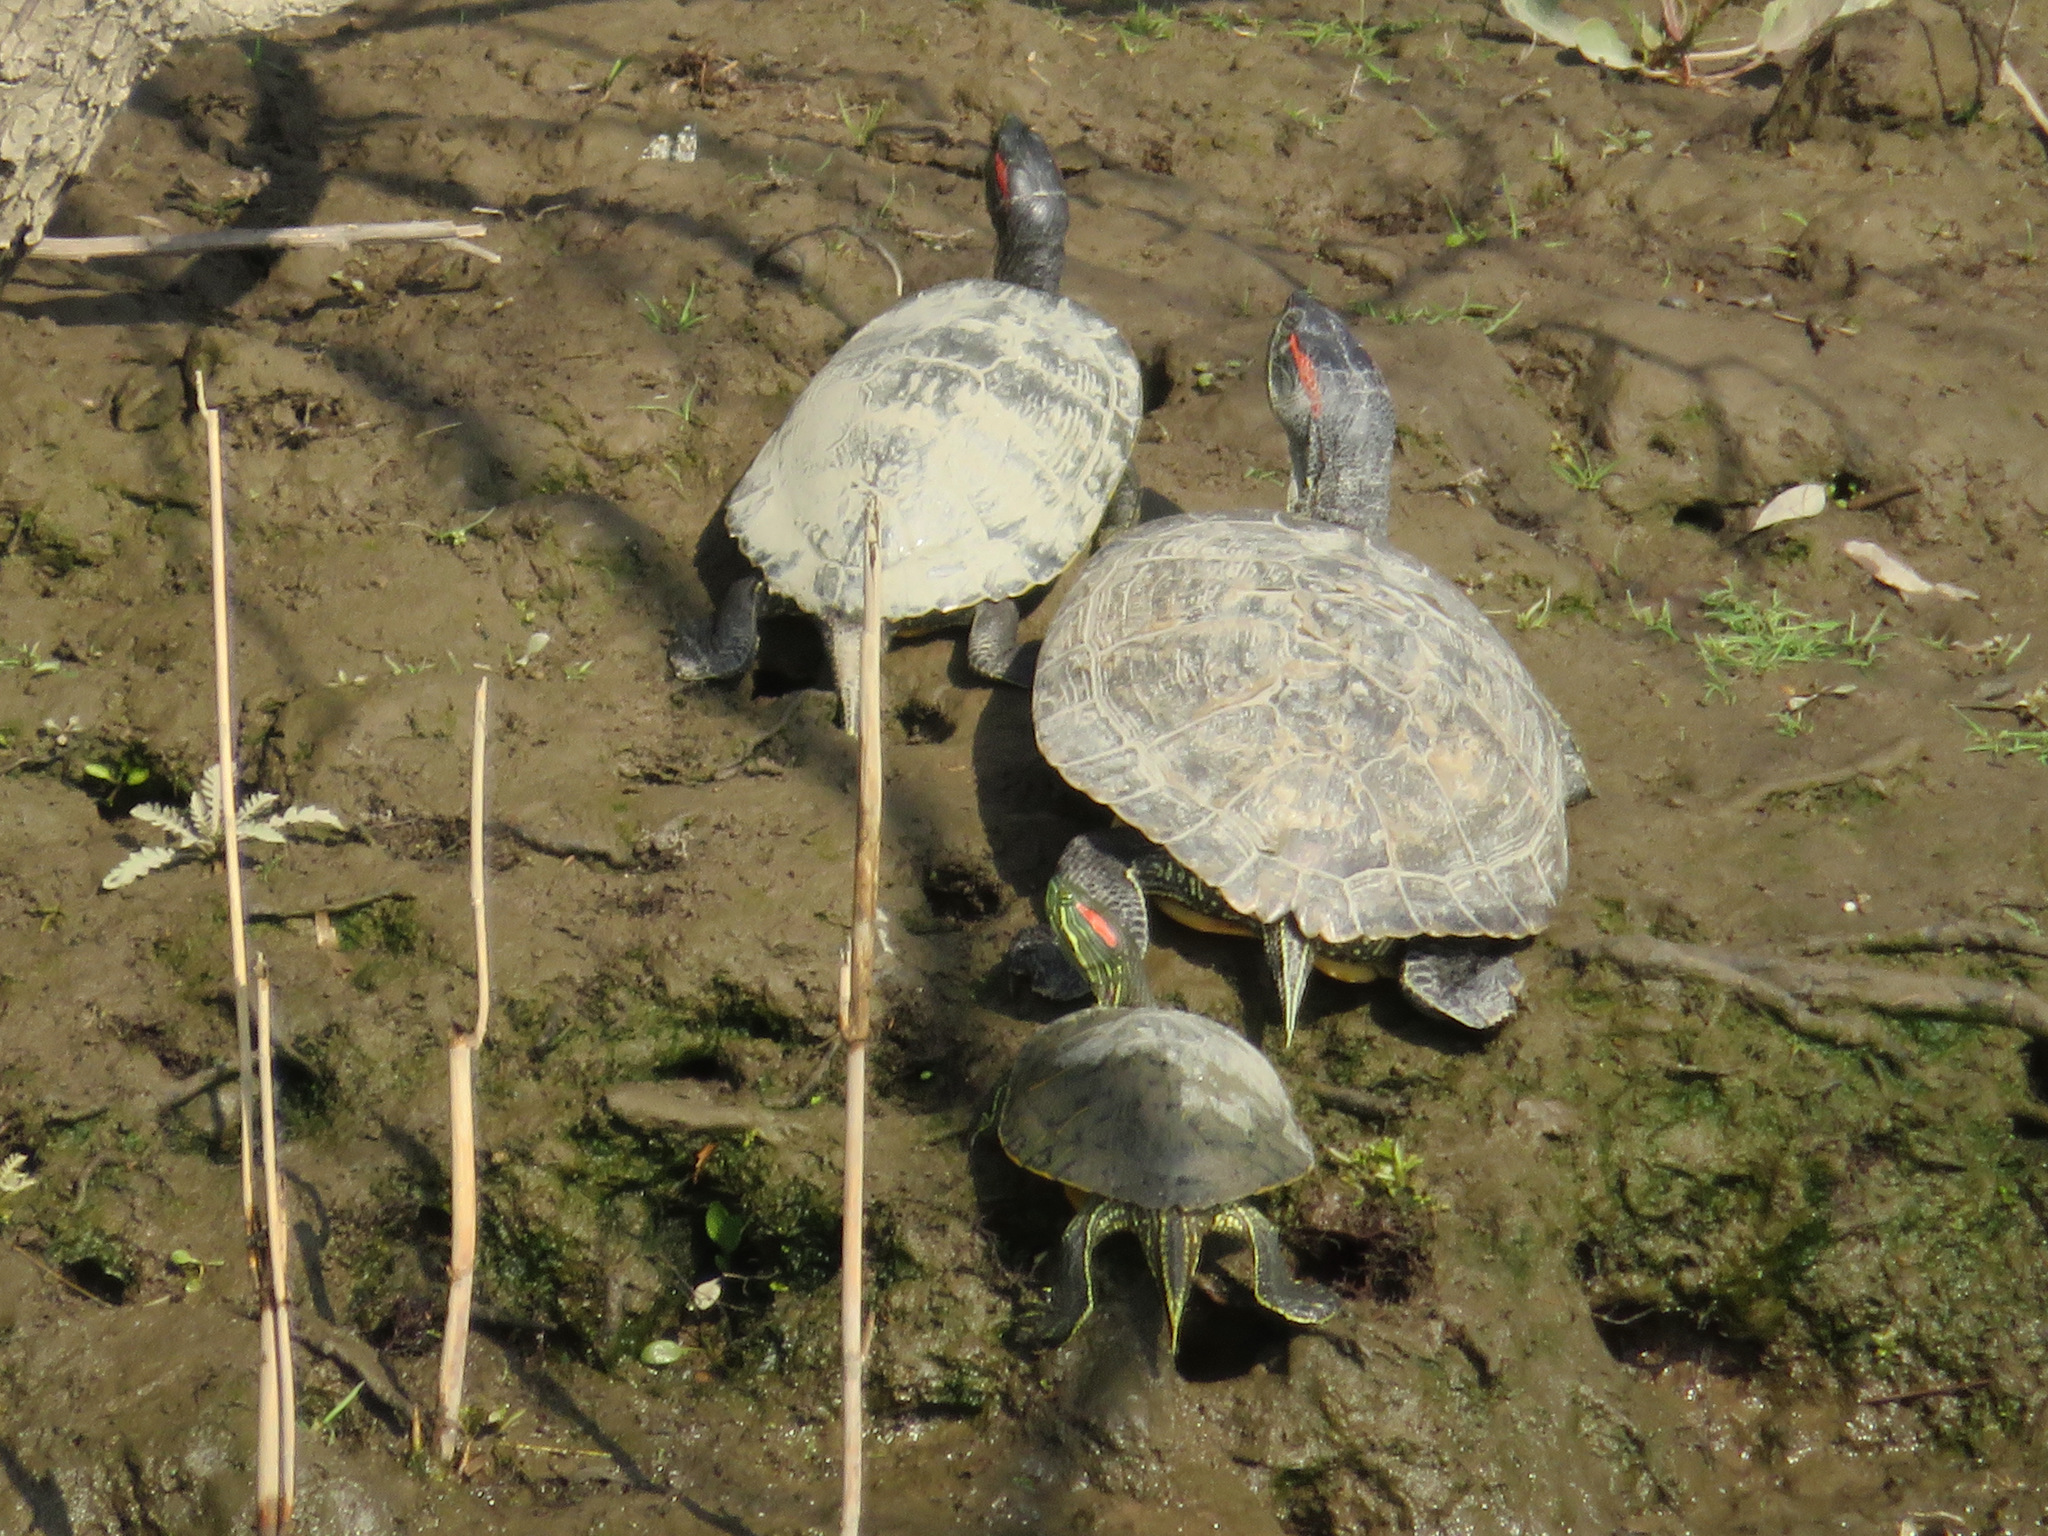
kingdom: Animalia
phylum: Chordata
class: Testudines
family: Emydidae
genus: Trachemys
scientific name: Trachemys scripta
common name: Slider
